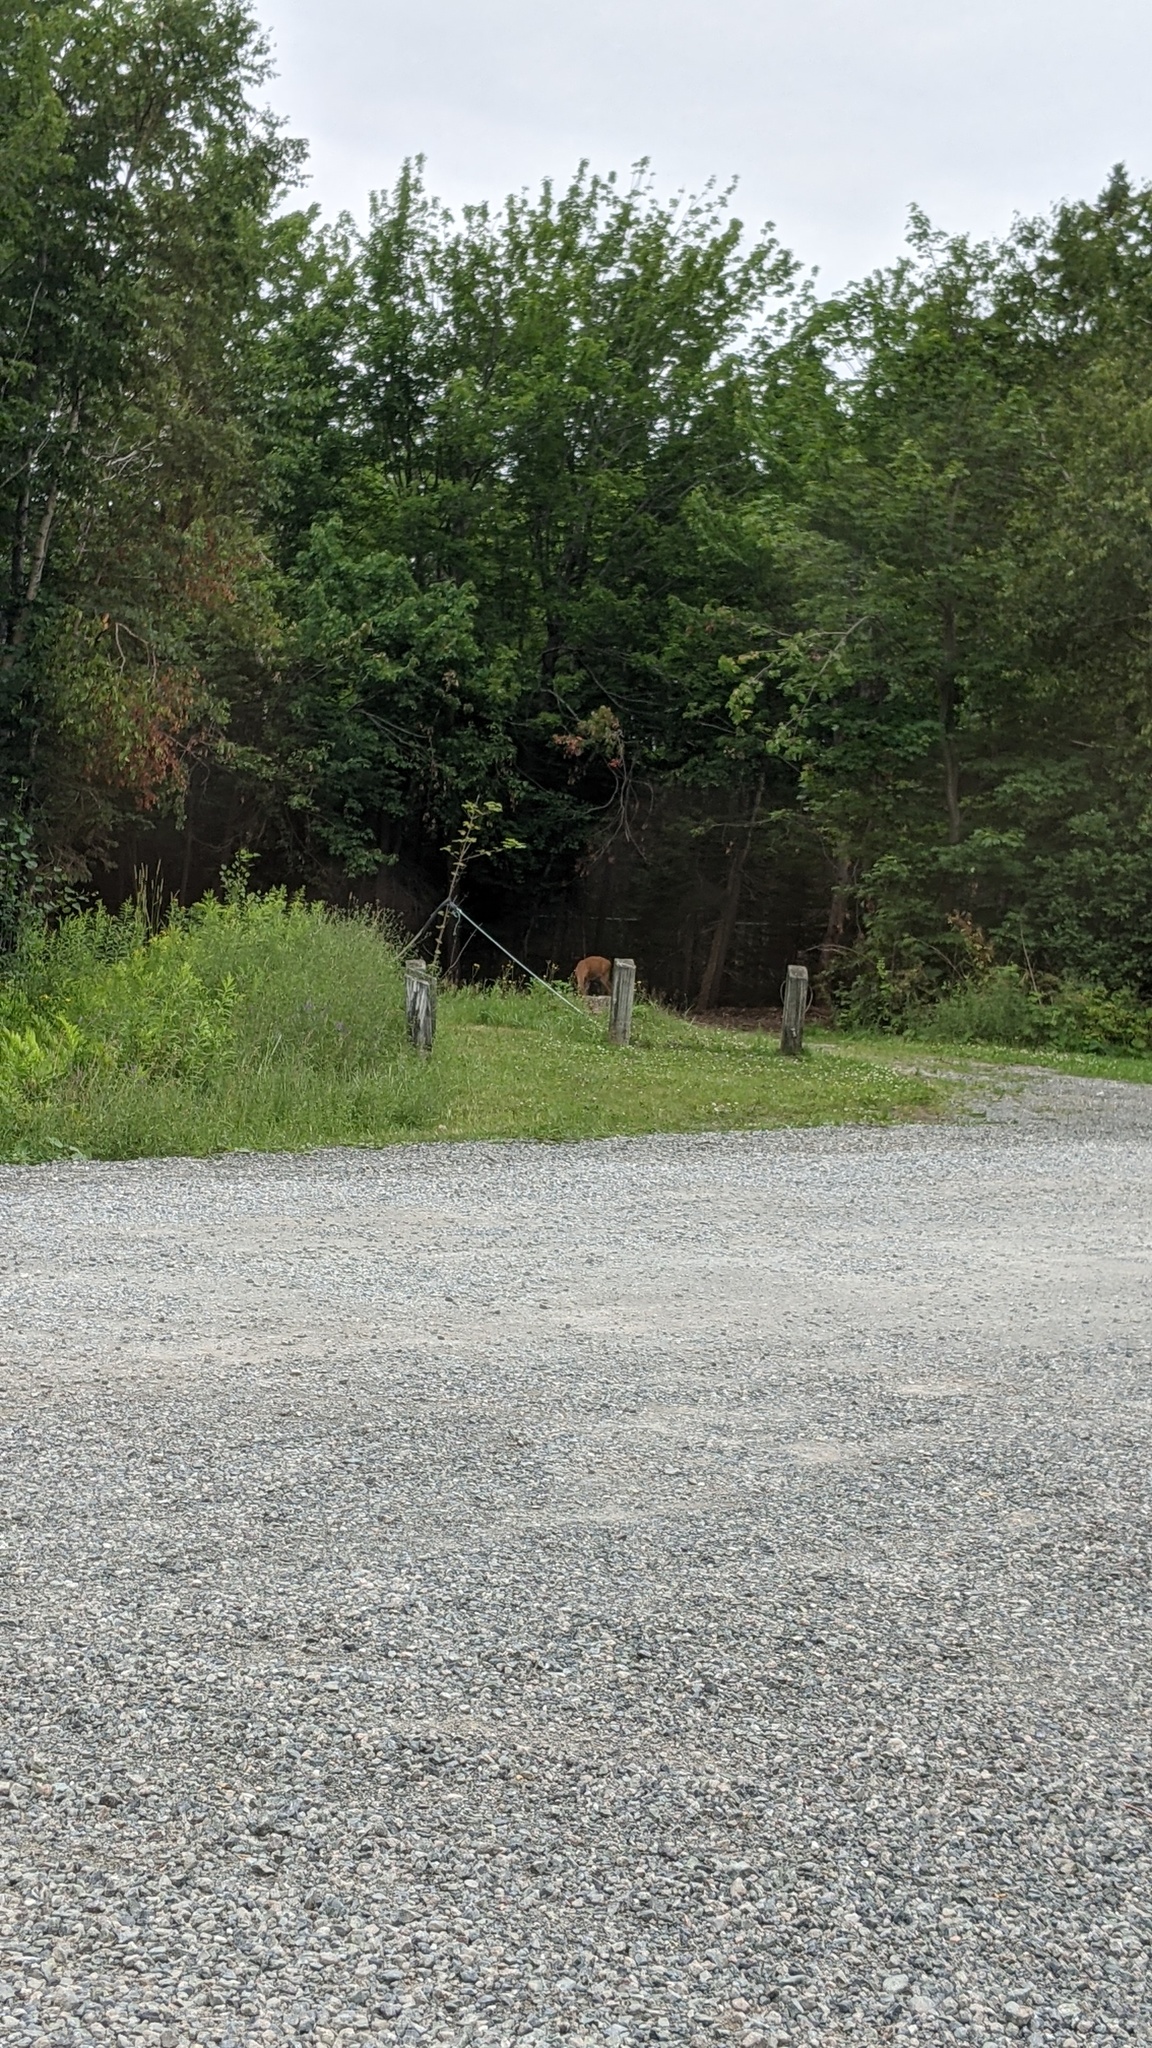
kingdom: Animalia
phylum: Chordata
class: Mammalia
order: Artiodactyla
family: Cervidae
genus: Odocoileus
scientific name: Odocoileus virginianus
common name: White-tailed deer
